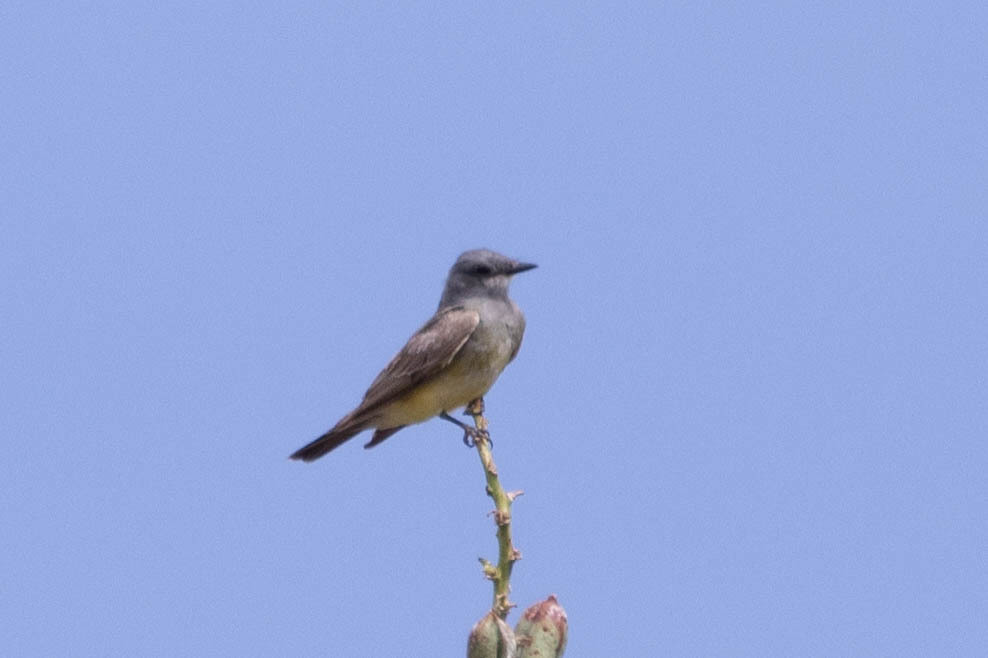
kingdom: Animalia
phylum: Chordata
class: Aves
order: Passeriformes
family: Tyrannidae
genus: Tyrannus
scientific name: Tyrannus vociferans
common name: Cassin's kingbird
